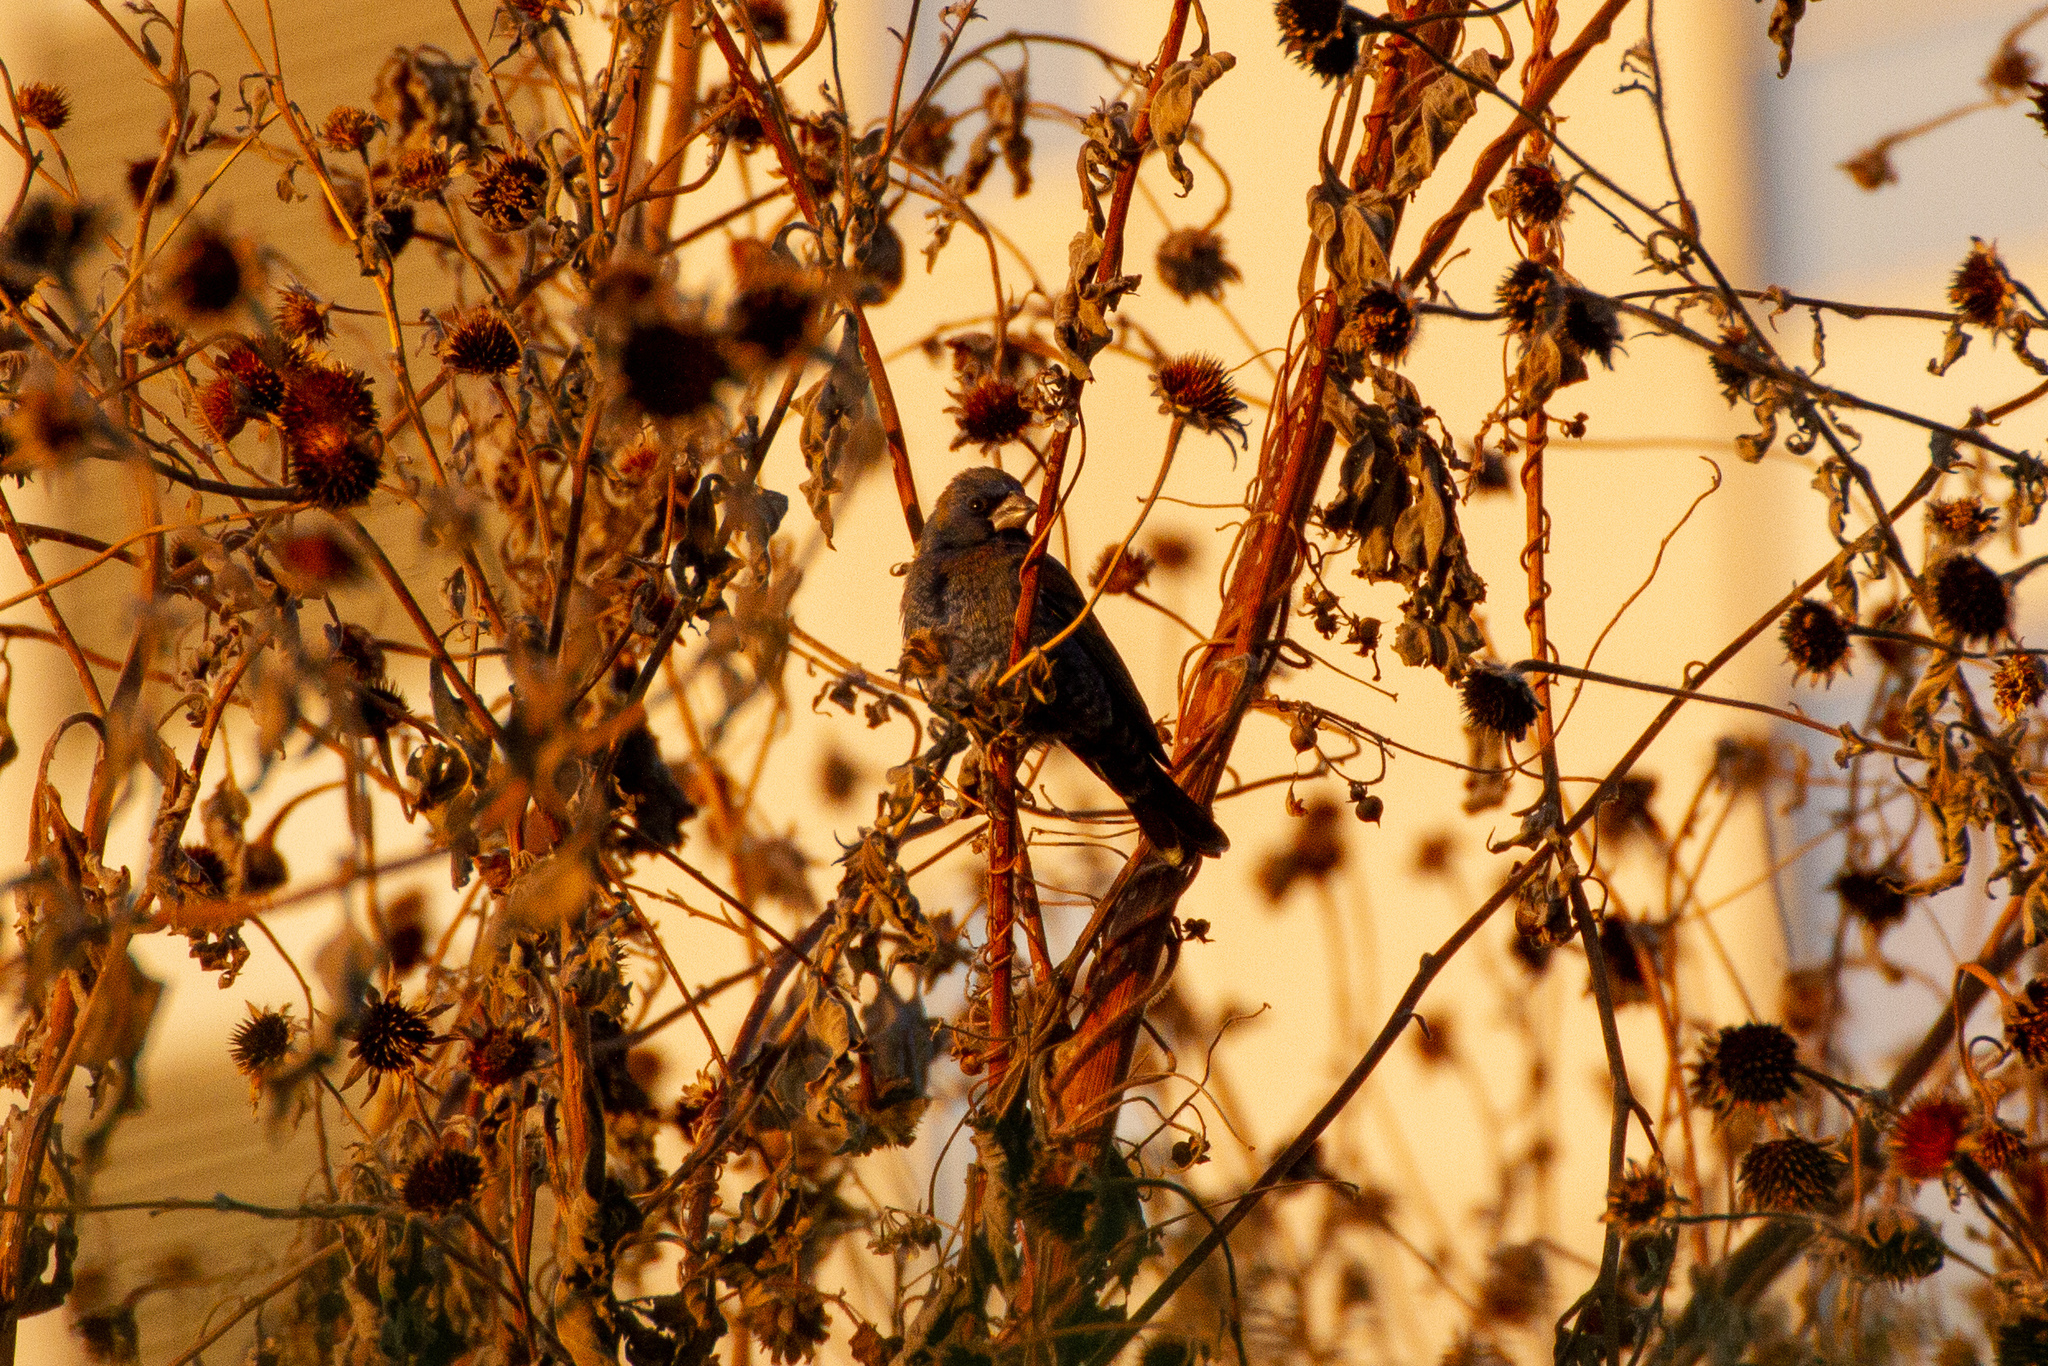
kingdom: Animalia
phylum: Chordata
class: Aves
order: Passeriformes
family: Cardinalidae
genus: Passerina
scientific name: Passerina caerulea
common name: Blue grosbeak
